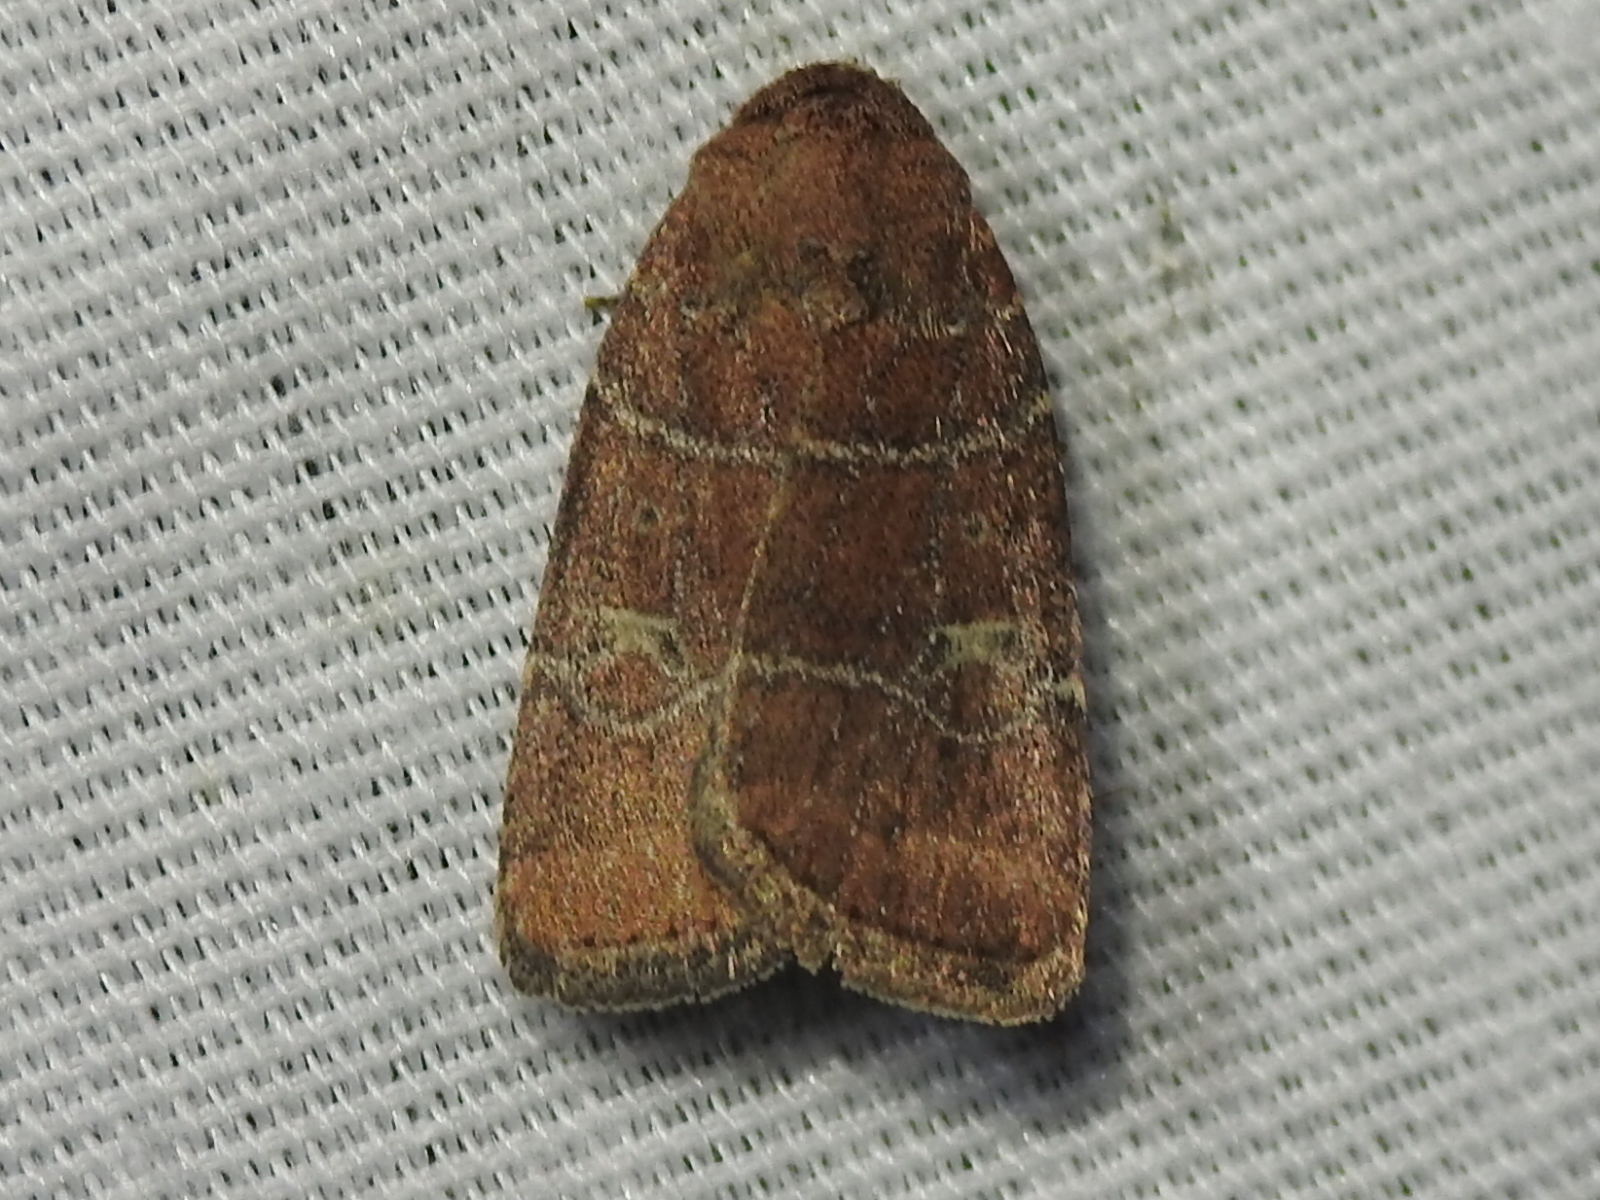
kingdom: Animalia
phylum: Arthropoda
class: Insecta
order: Lepidoptera
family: Noctuidae
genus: Elaphria
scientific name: Elaphria grata
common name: Grateful midget moth
